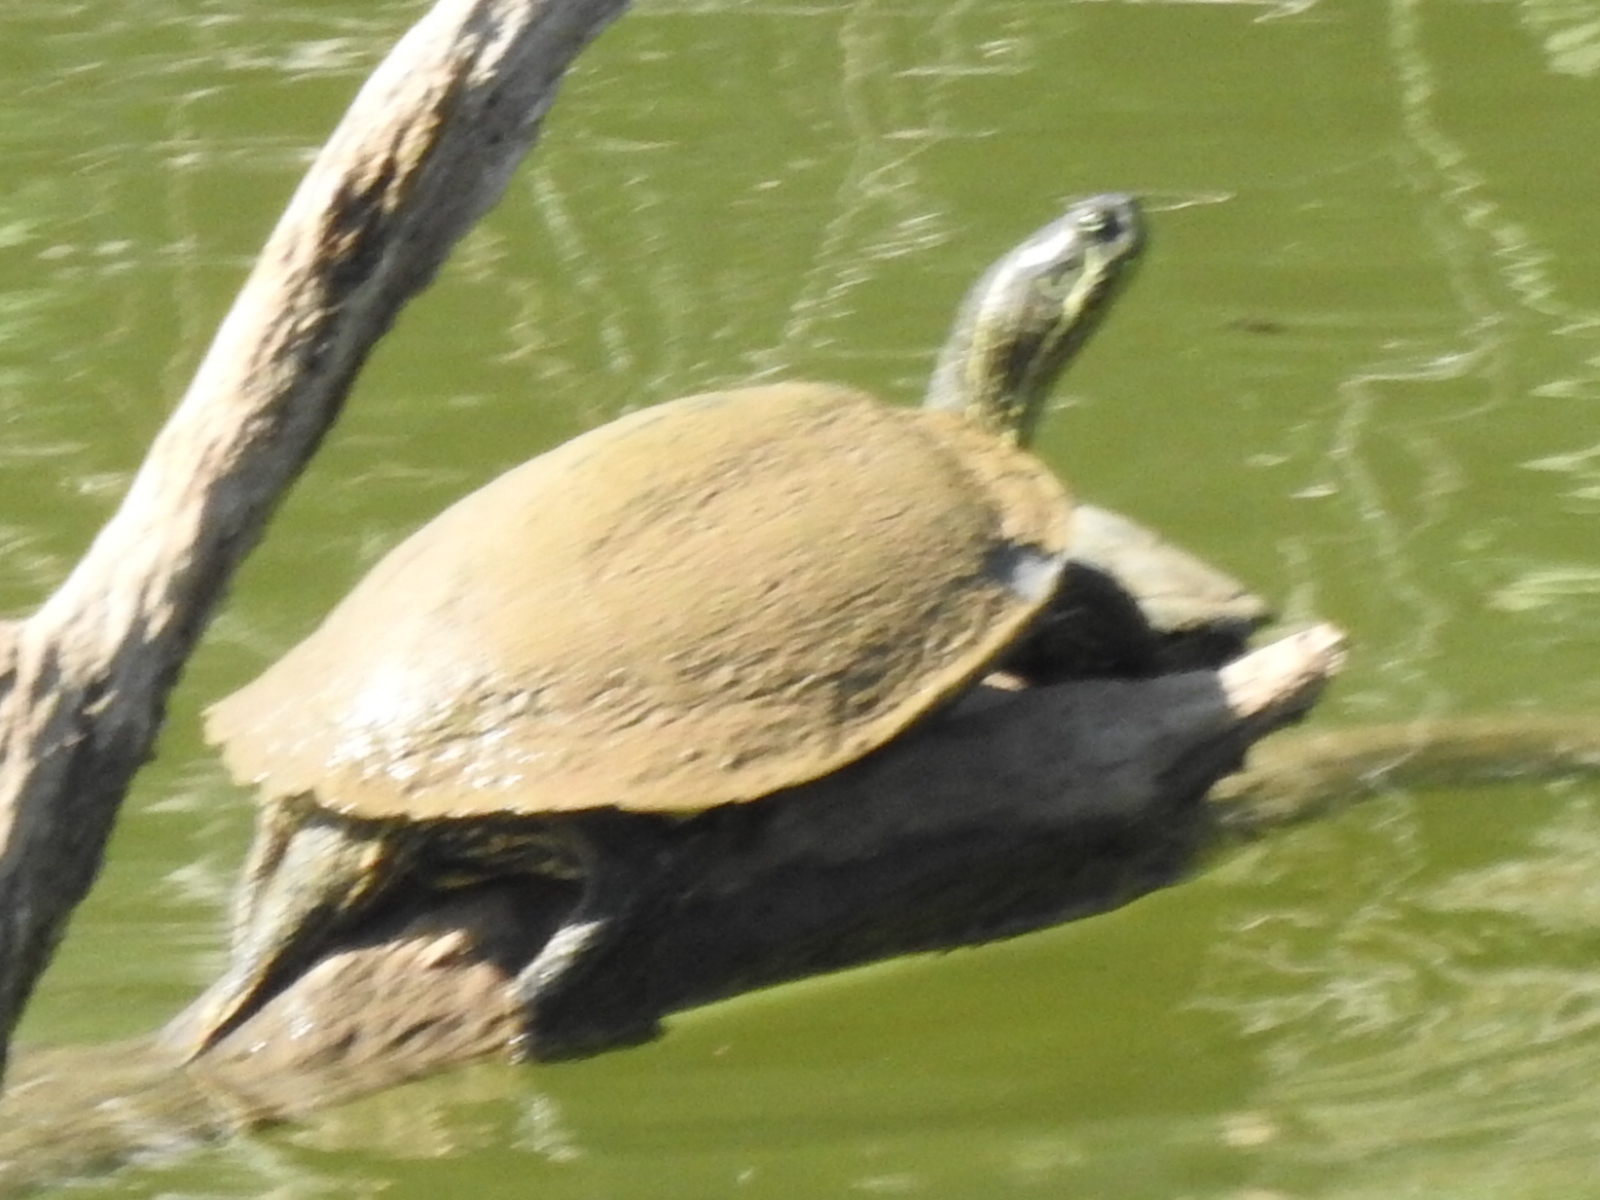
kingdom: Animalia
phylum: Chordata
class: Testudines
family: Emydidae
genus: Pseudemys
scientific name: Pseudemys texana
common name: Texas river cooter
